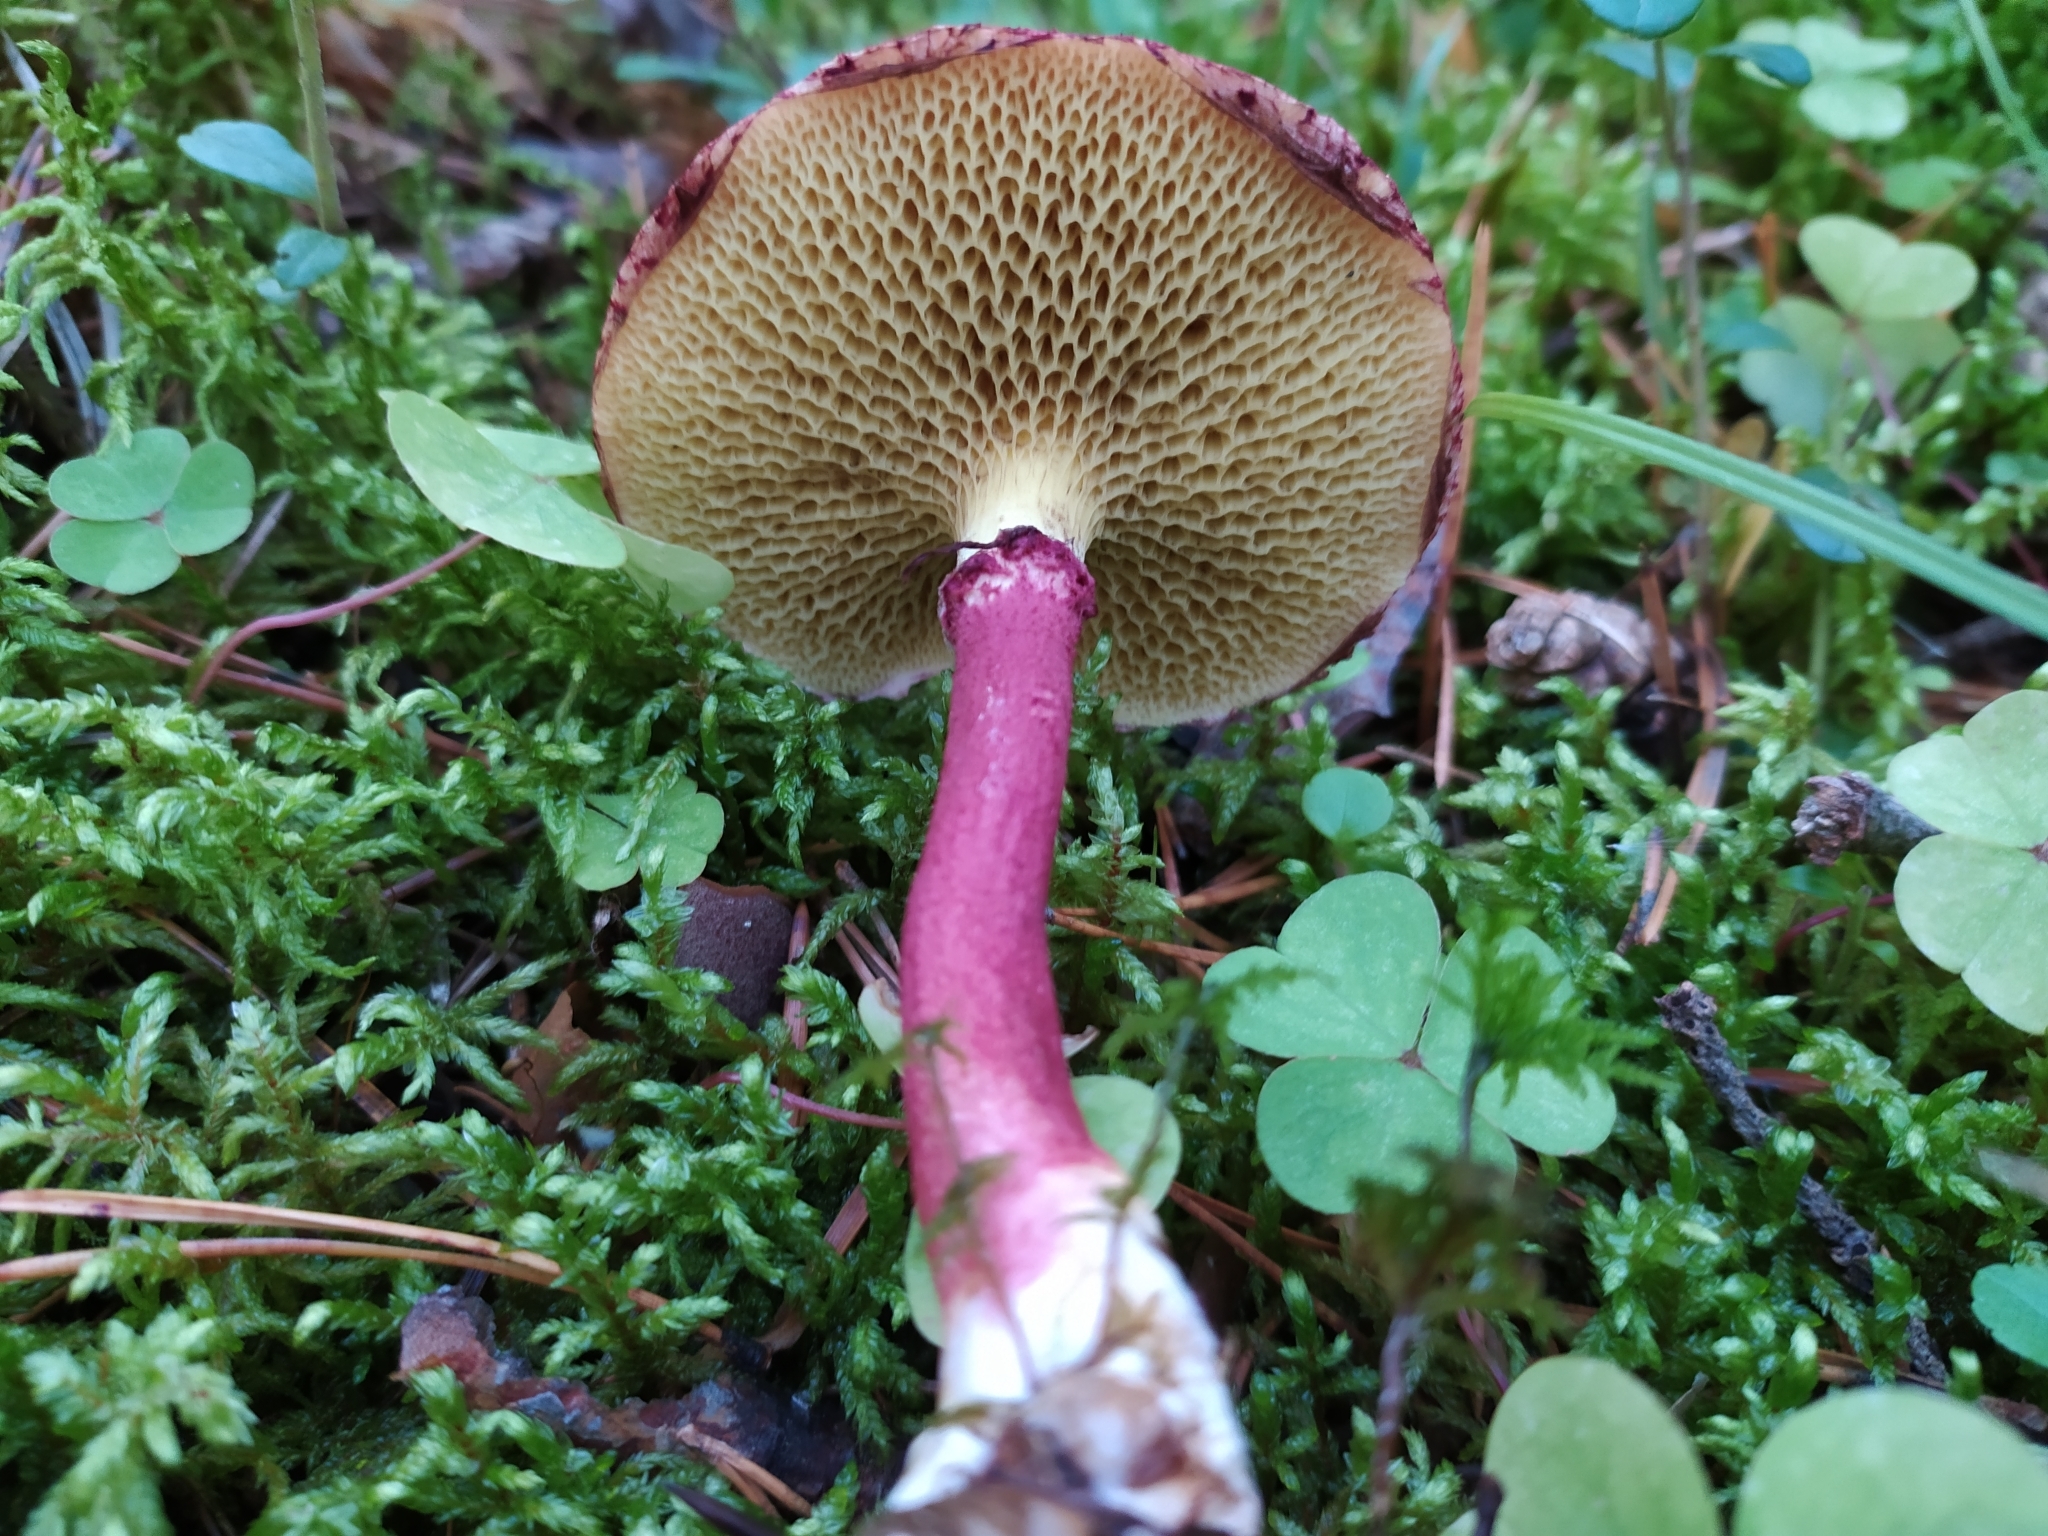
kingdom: Fungi
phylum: Basidiomycota
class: Agaricomycetes
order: Boletales
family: Suillaceae
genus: Boletinus
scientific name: Boletinus asiaticus
